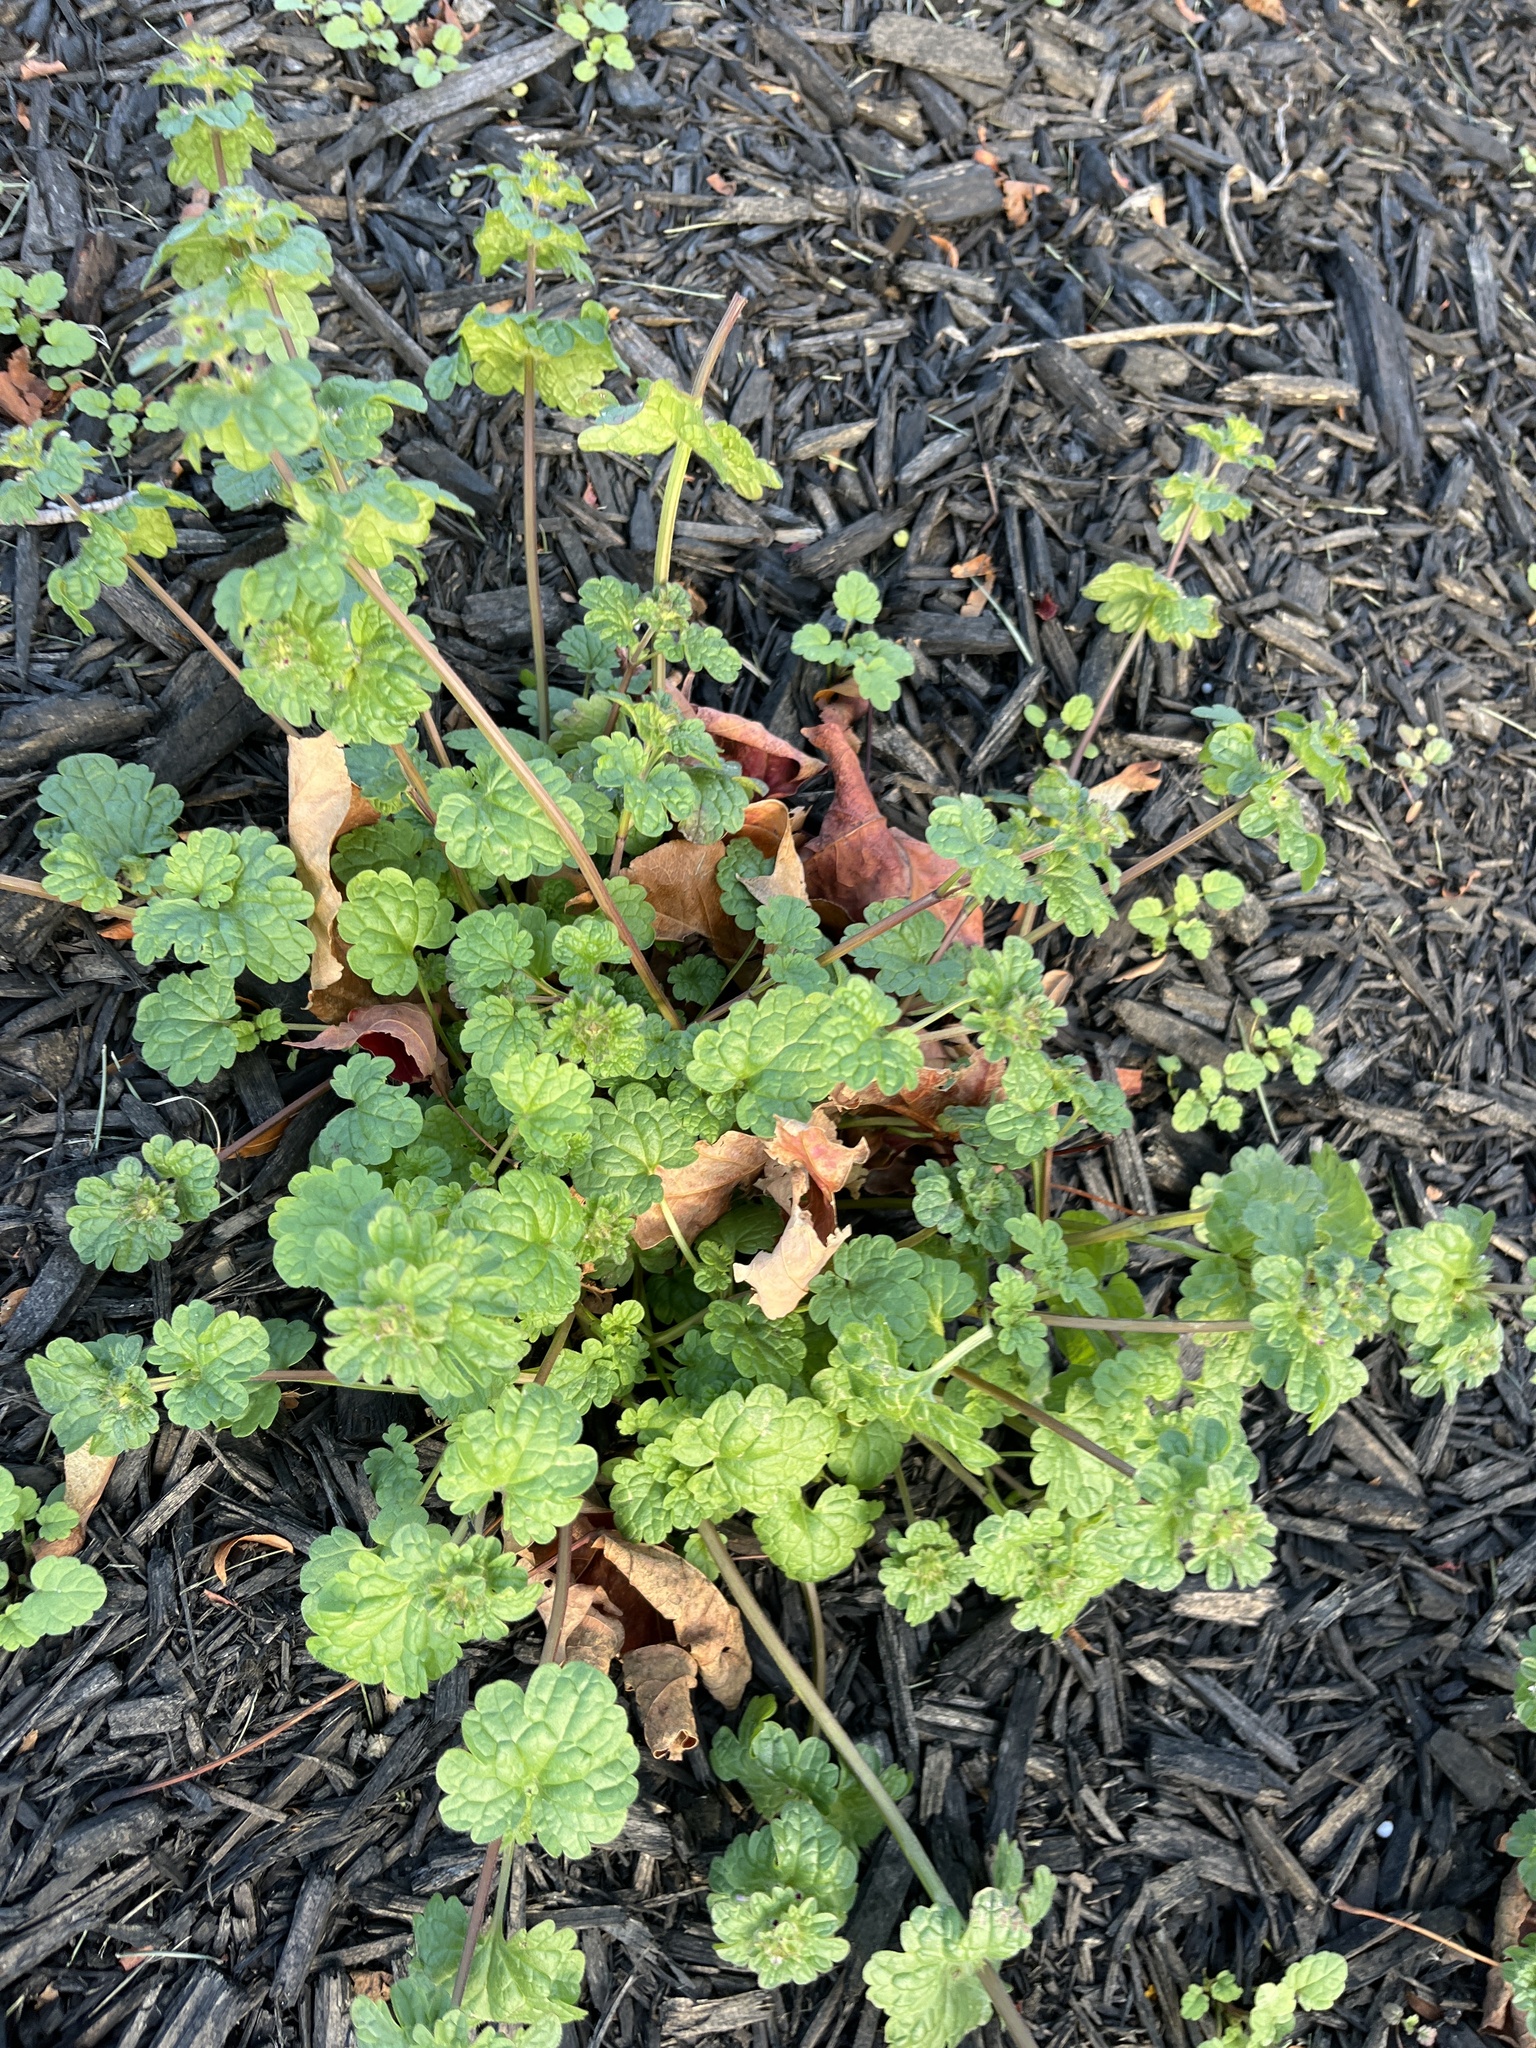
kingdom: Plantae
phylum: Tracheophyta
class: Magnoliopsida
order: Lamiales
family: Lamiaceae
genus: Lamium
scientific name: Lamium amplexicaule
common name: Henbit dead-nettle
